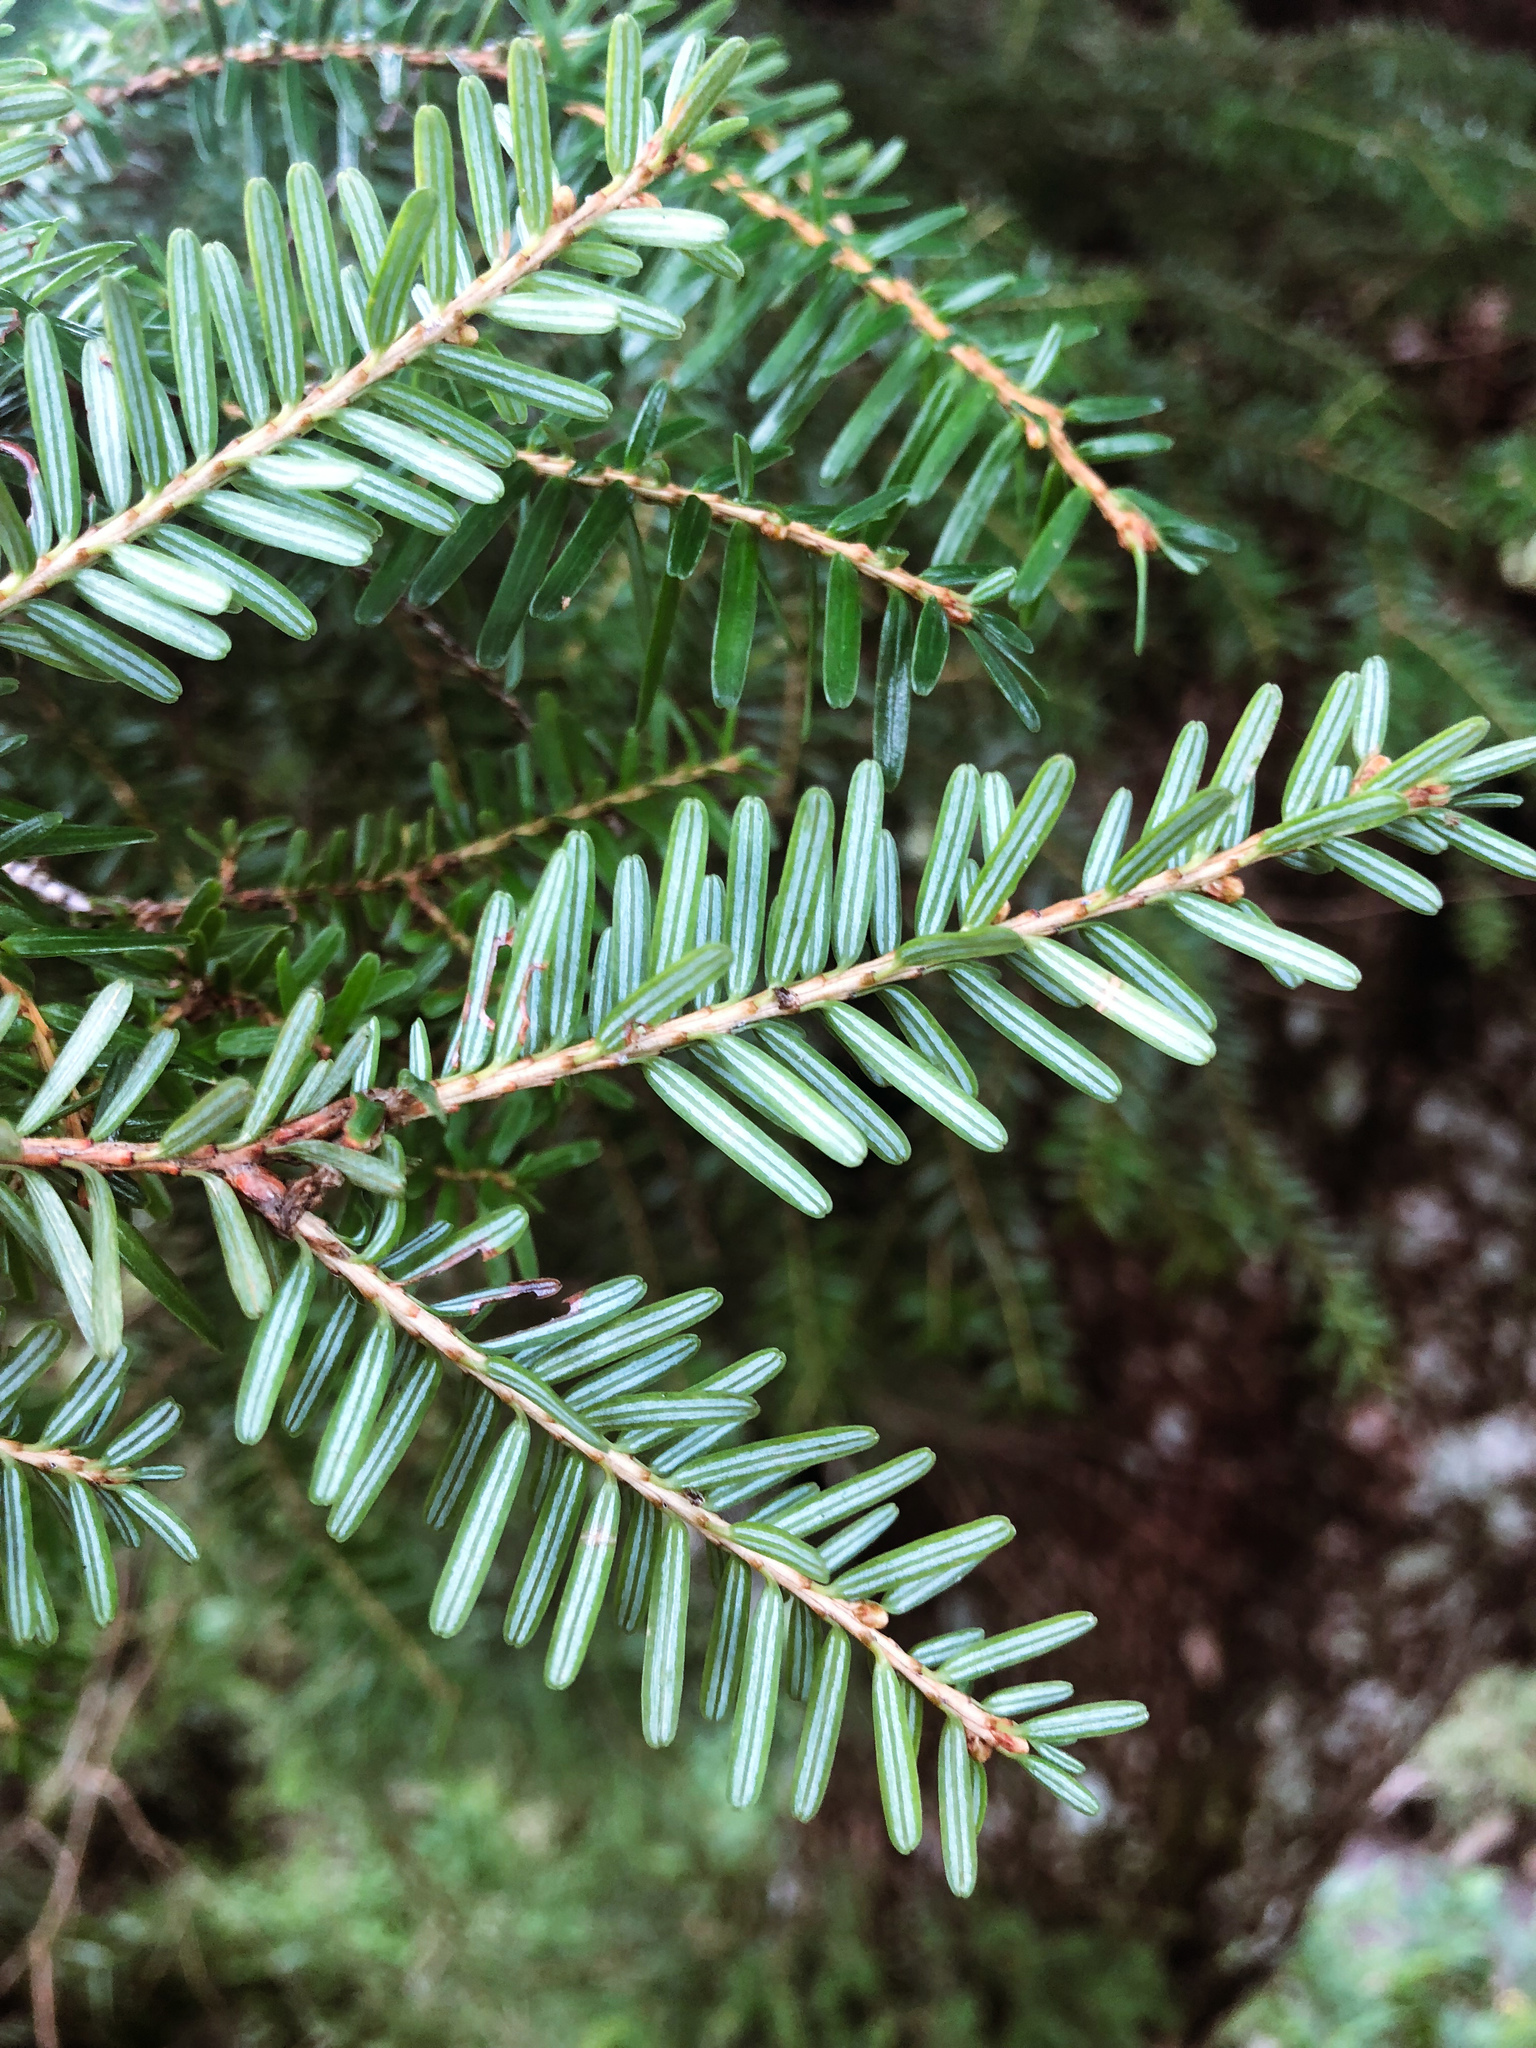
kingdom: Plantae
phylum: Tracheophyta
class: Pinopsida
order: Pinales
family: Pinaceae
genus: Tsuga
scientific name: Tsuga chinensis
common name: Chinese hemlock
